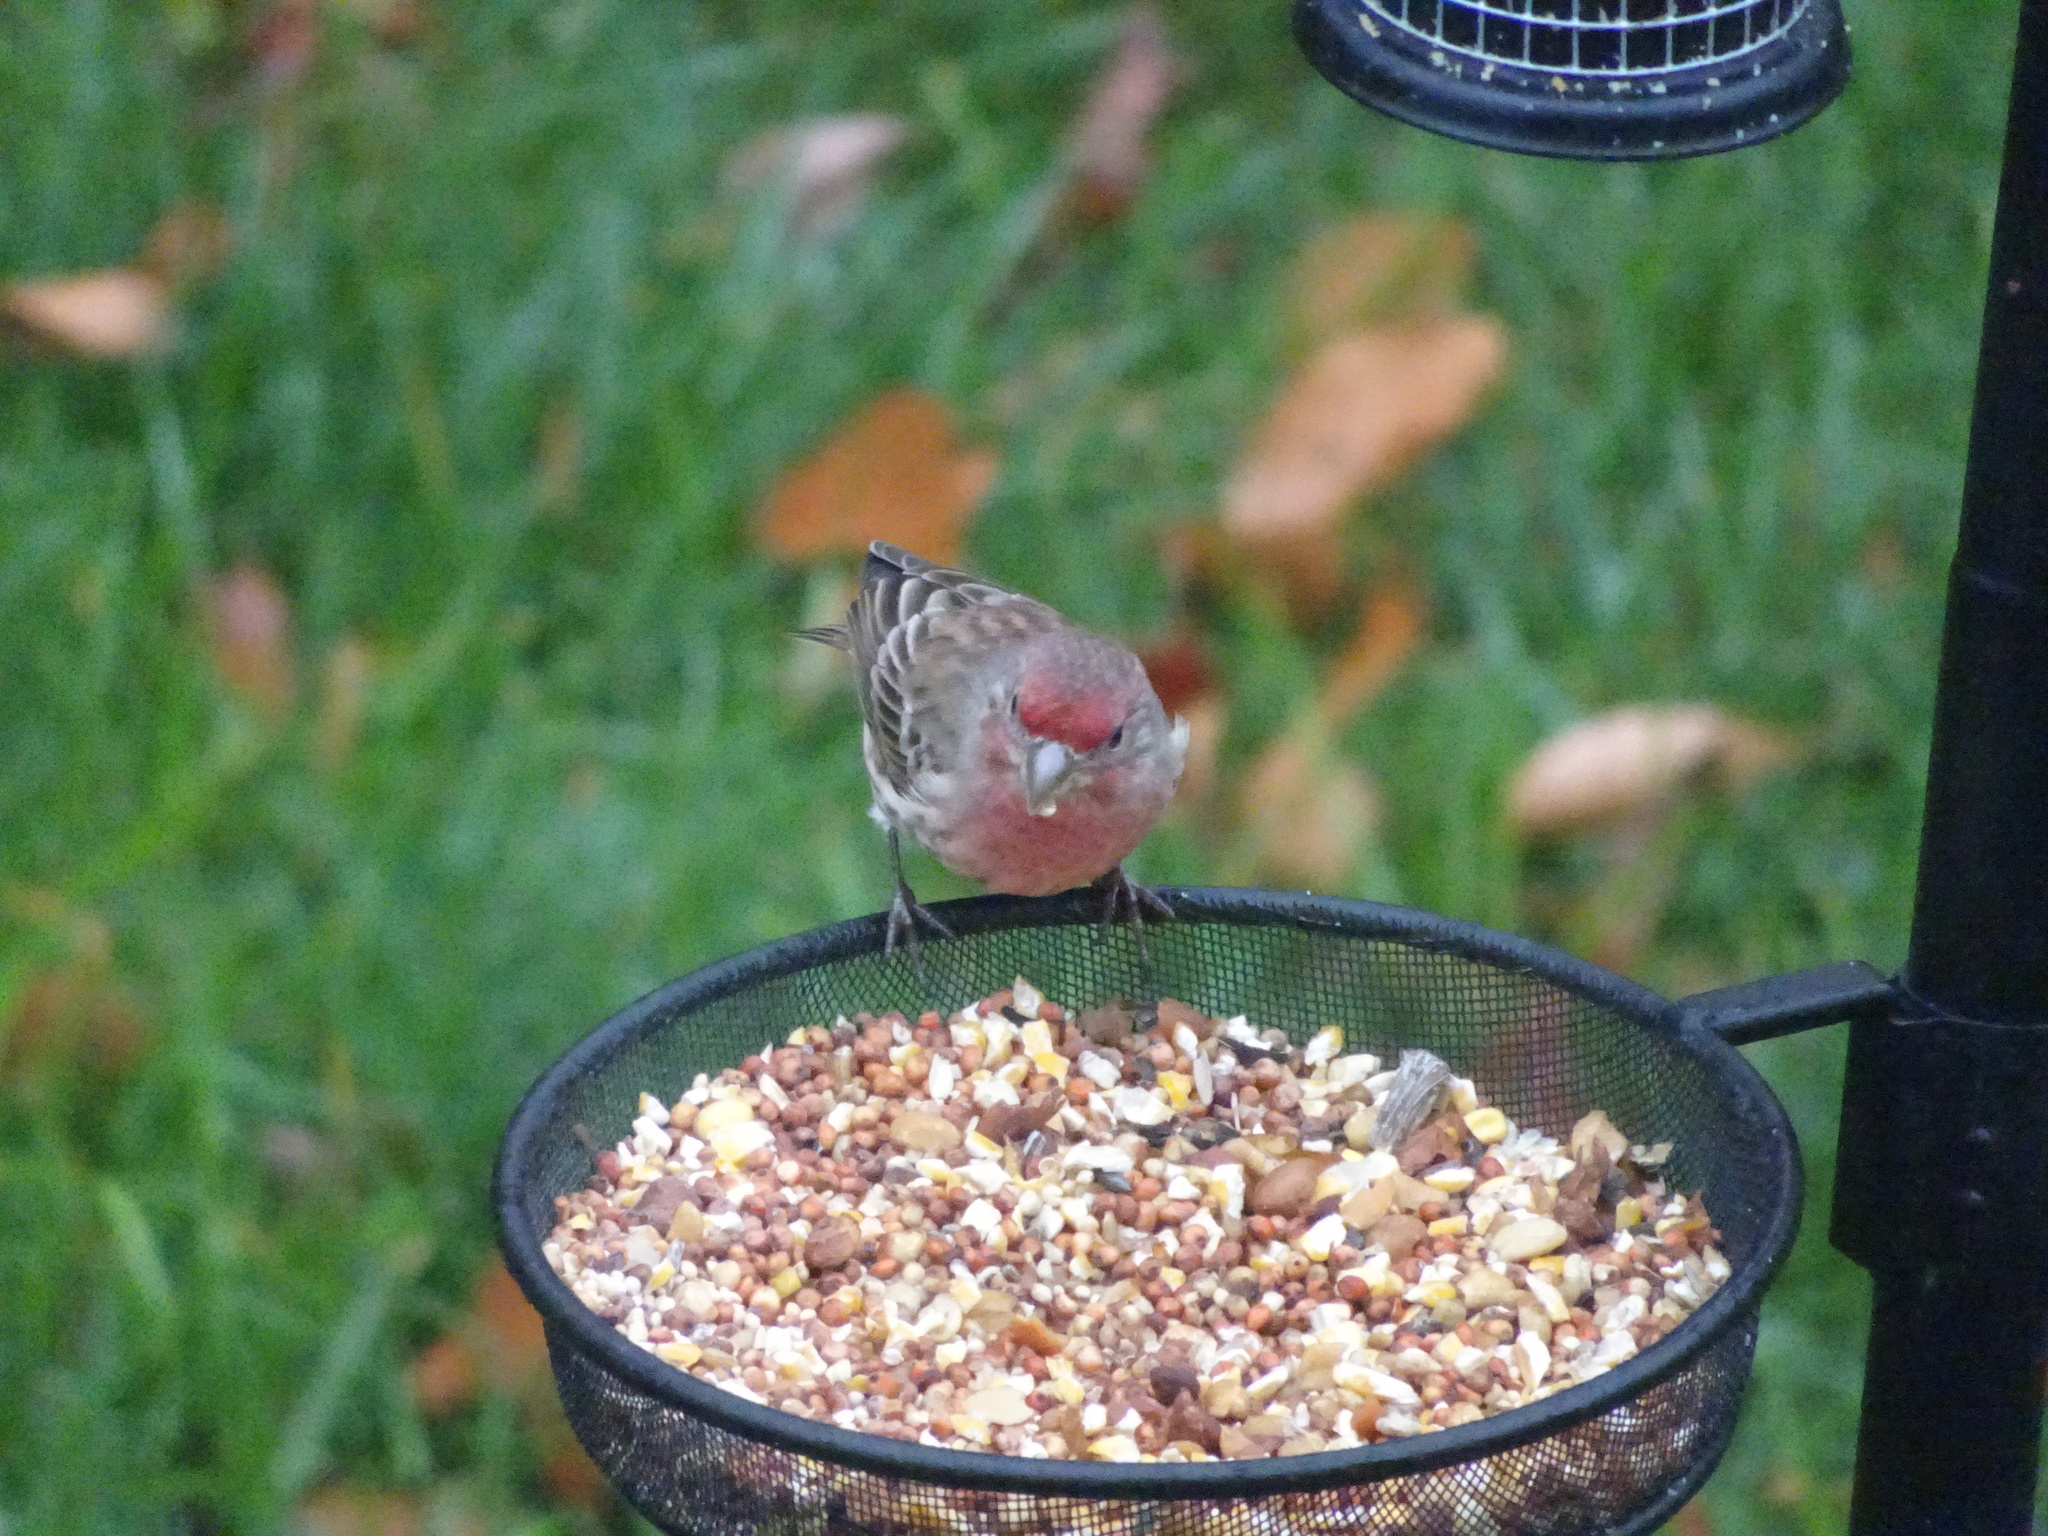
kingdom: Animalia
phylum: Chordata
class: Aves
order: Passeriformes
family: Fringillidae
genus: Haemorhous
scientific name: Haemorhous mexicanus
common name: House finch
